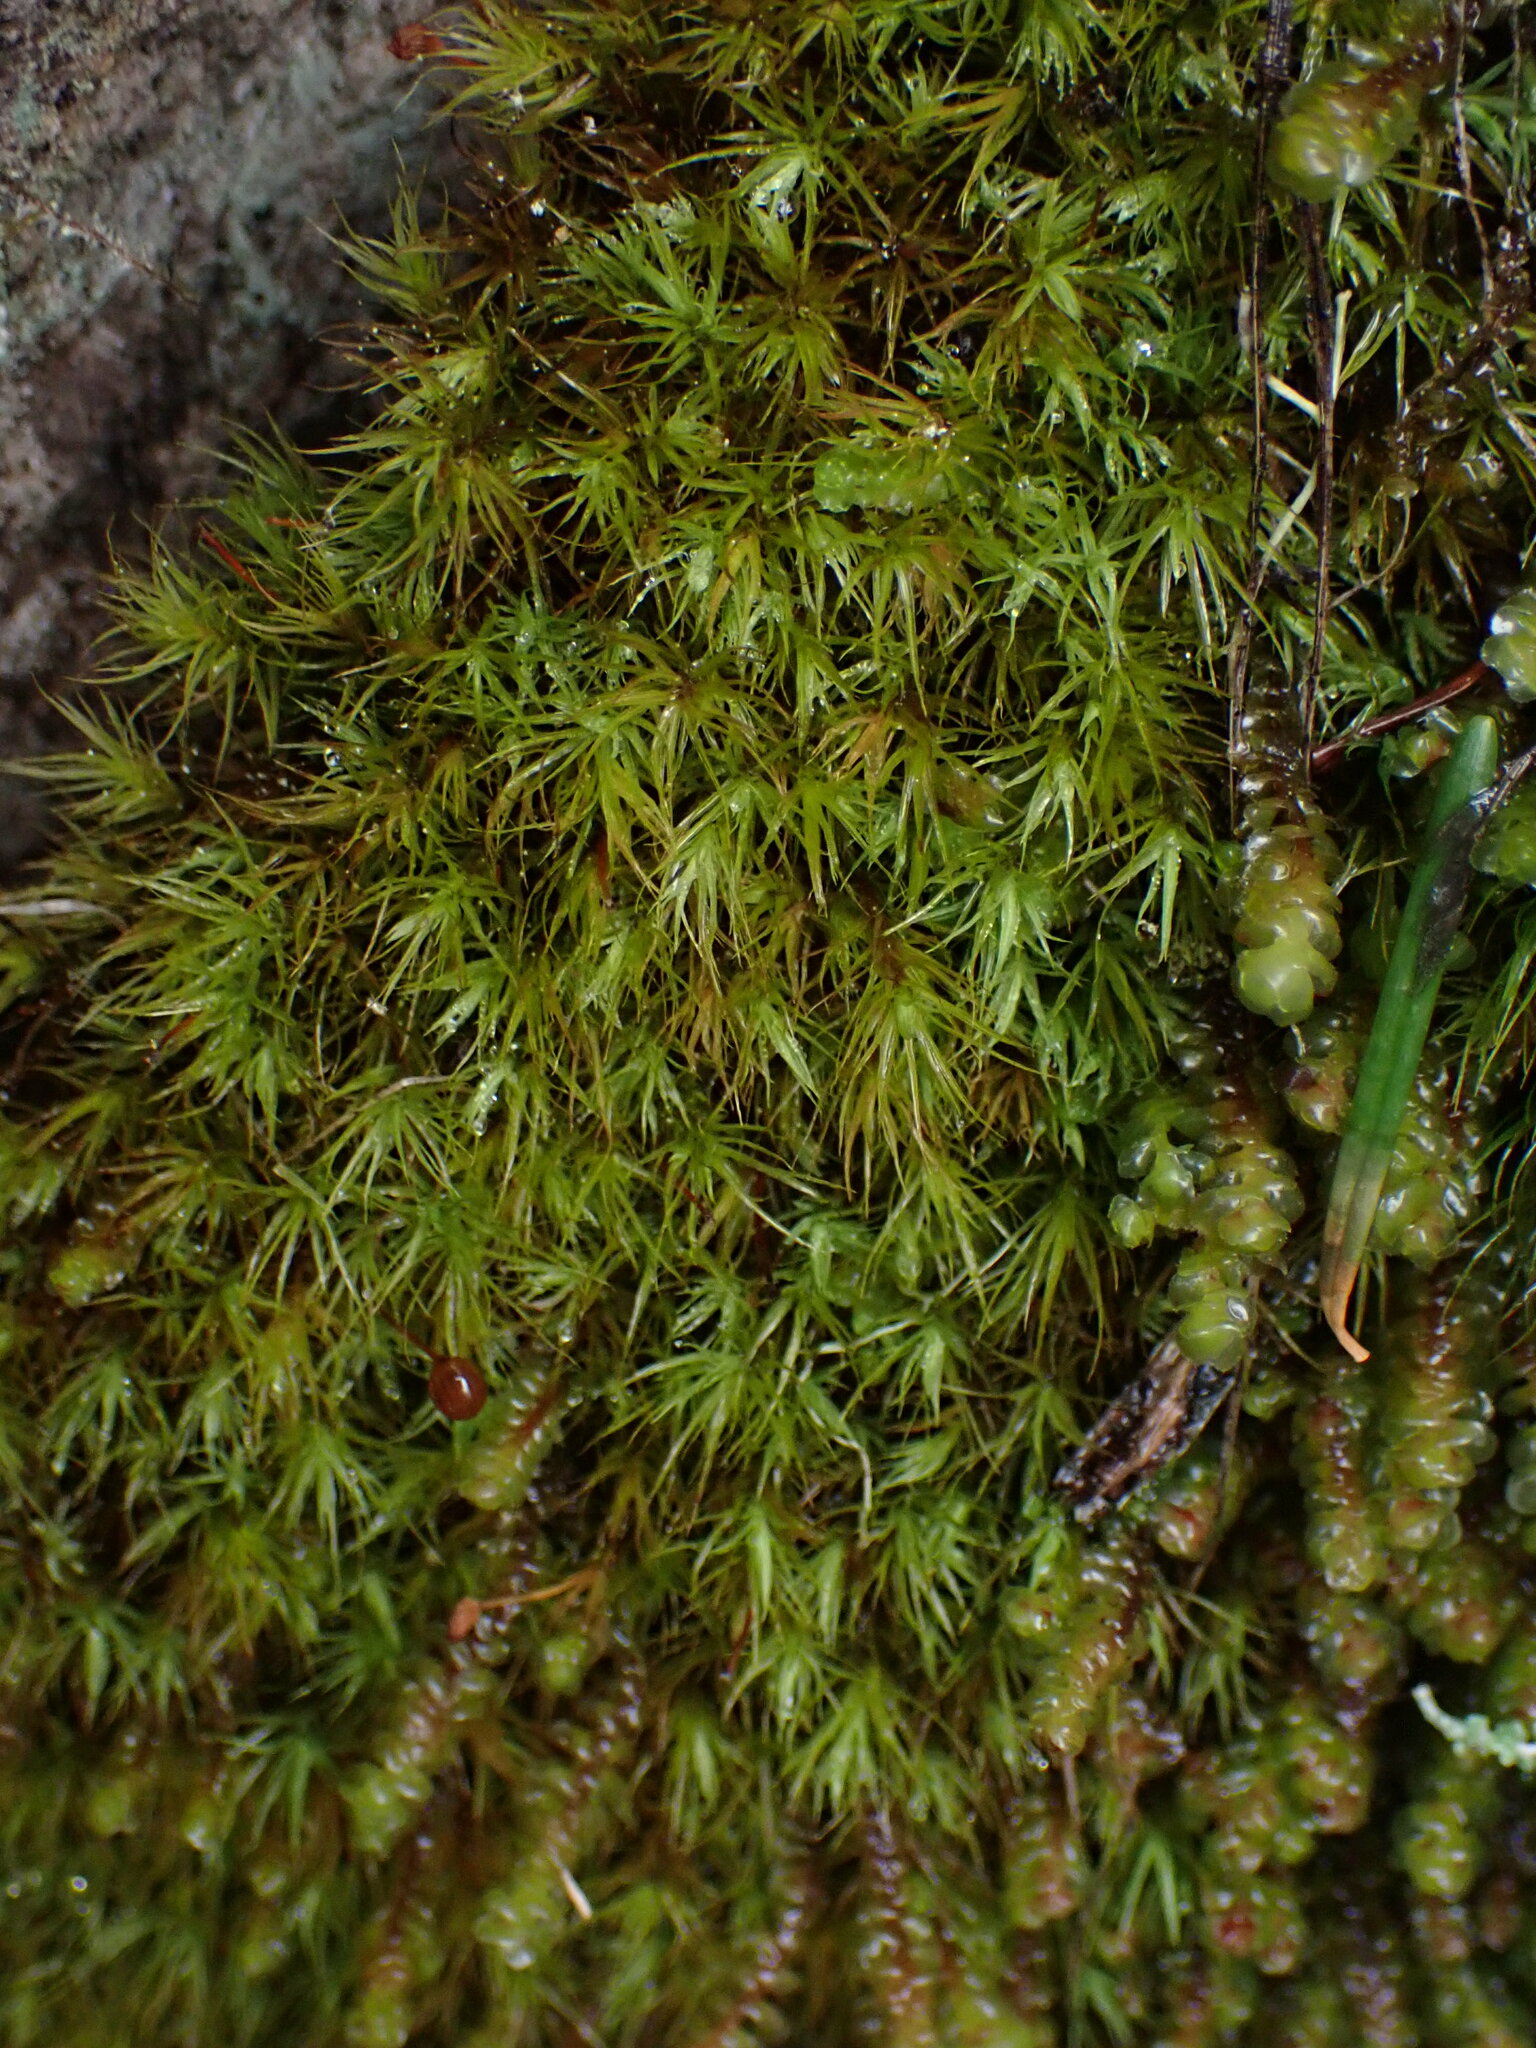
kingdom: Plantae
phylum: Bryophyta
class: Bryopsida
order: Bartramiales
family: Bartramiaceae
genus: Bartramia
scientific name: Bartramia ithyphylla
